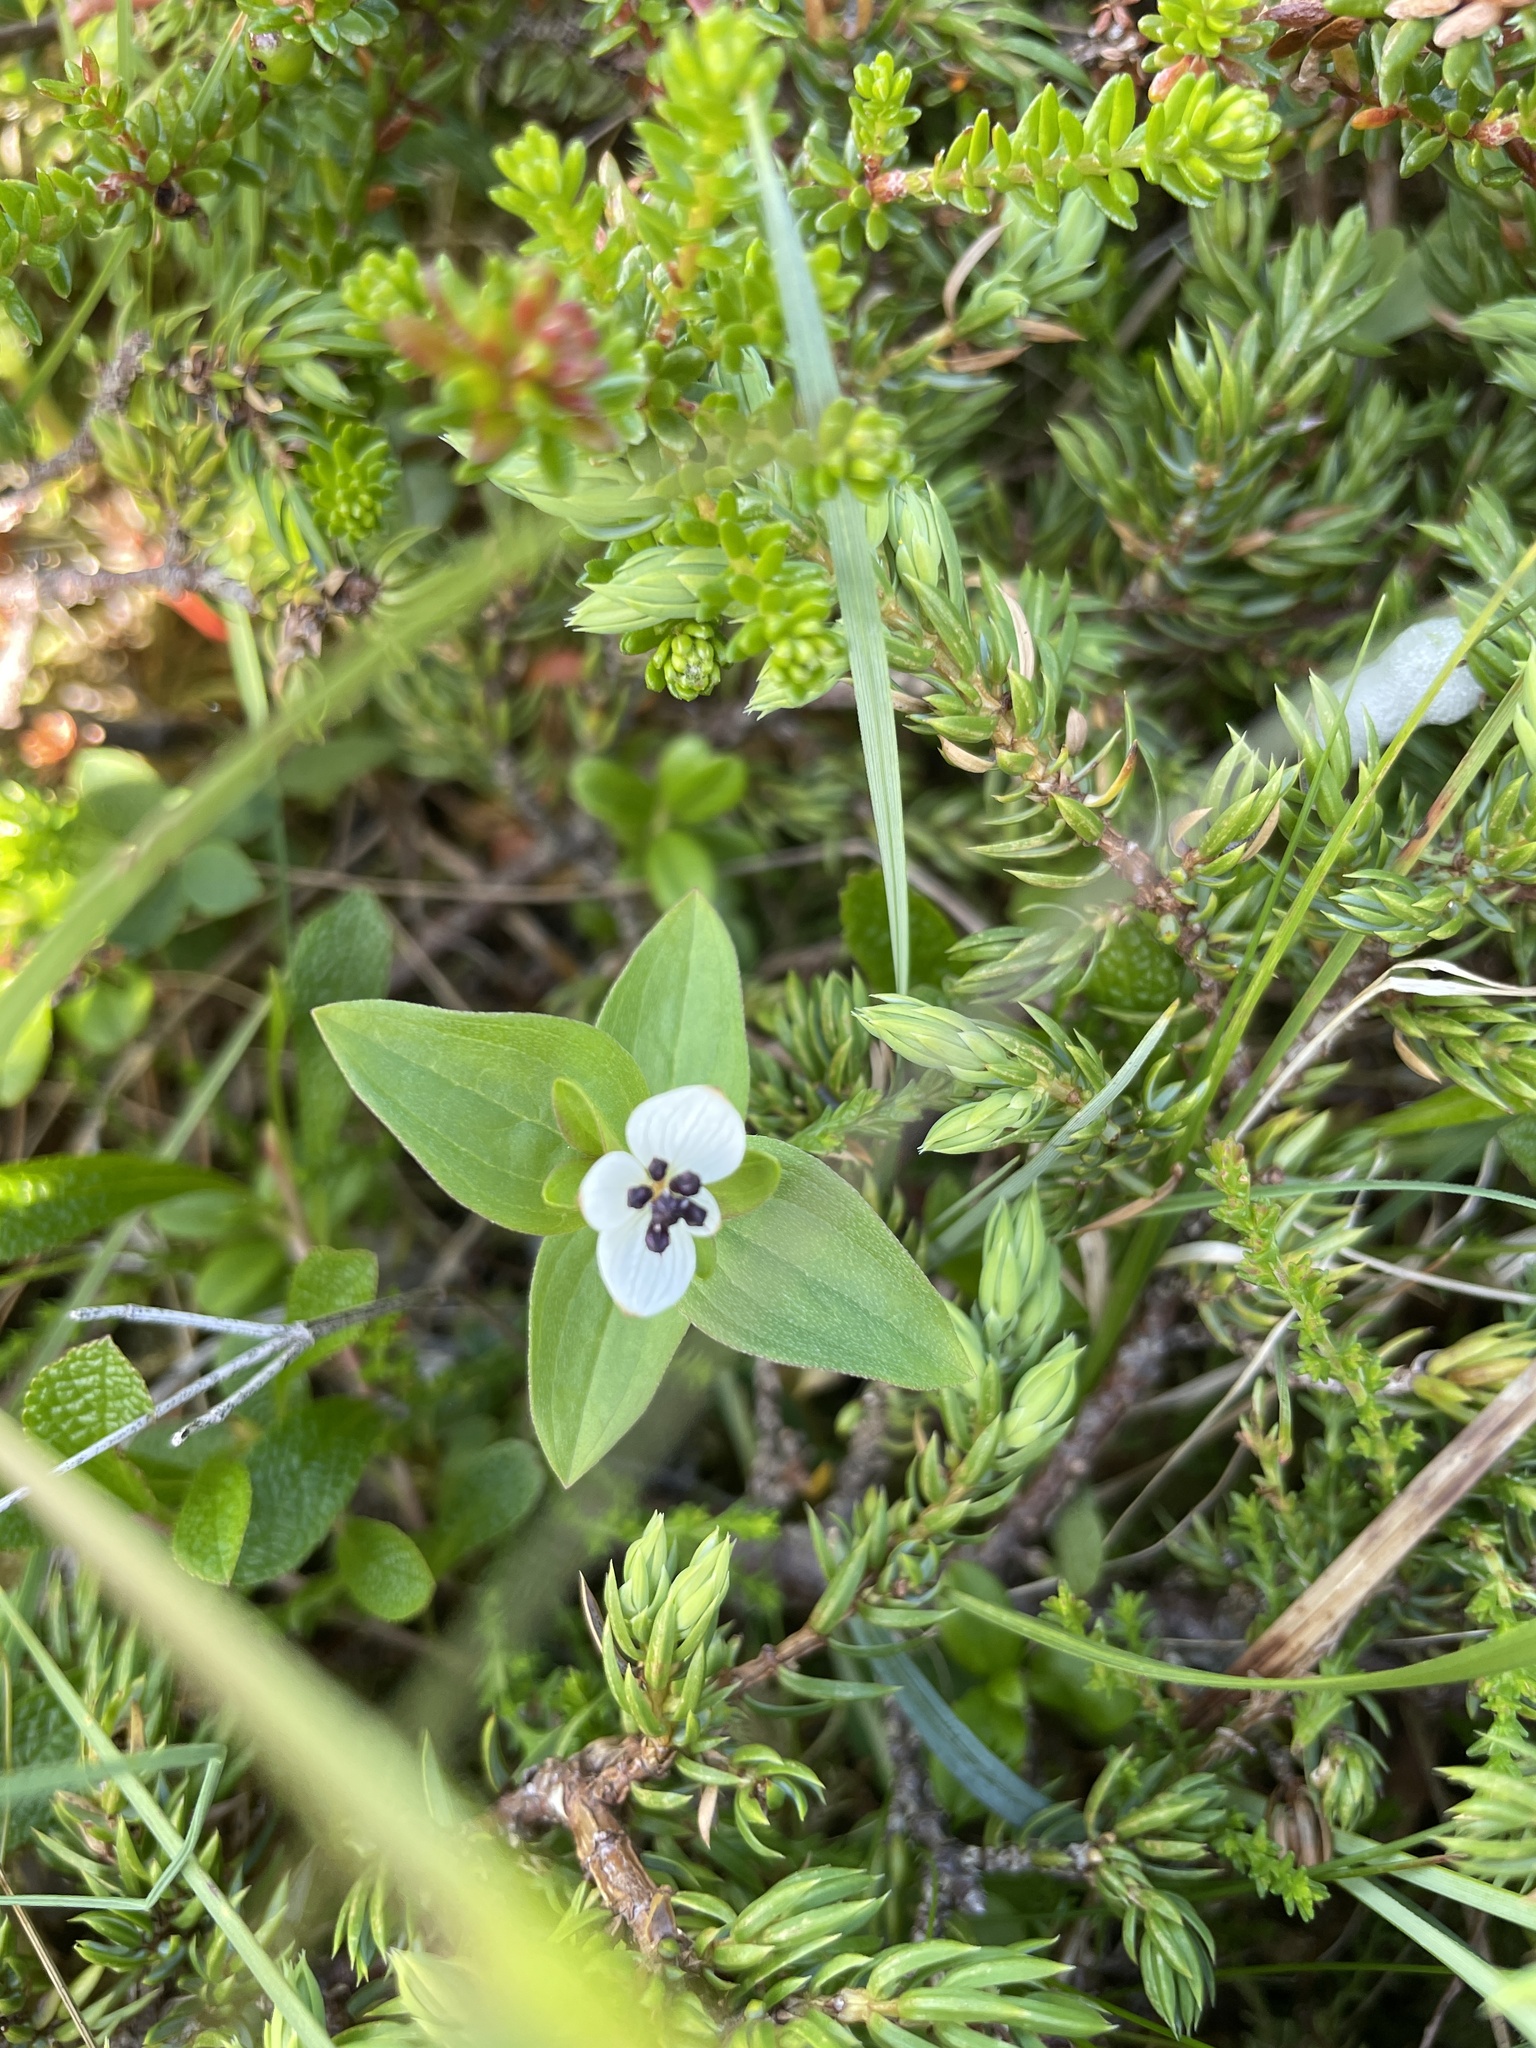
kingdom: Plantae
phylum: Tracheophyta
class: Magnoliopsida
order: Cornales
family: Cornaceae
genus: Cornus
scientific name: Cornus suecica
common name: Dwarf cornel
